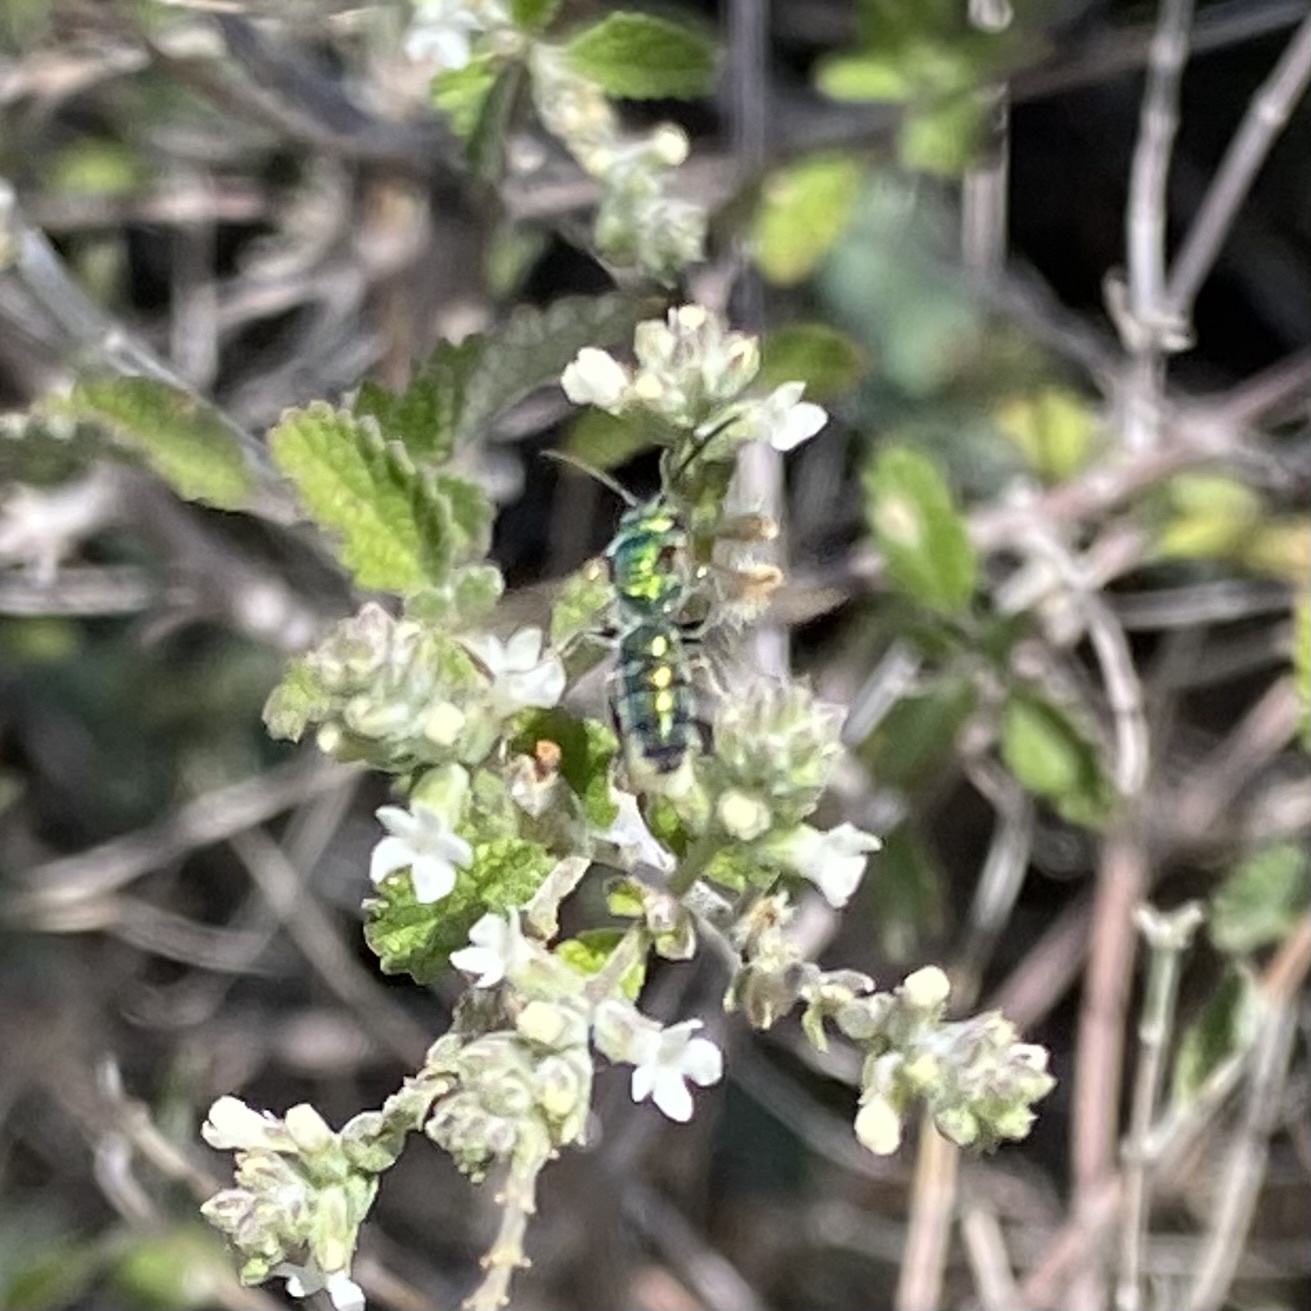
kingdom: Animalia
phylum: Arthropoda
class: Insecta
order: Hymenoptera
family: Halictidae
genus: Augochlorella
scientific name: Augochlorella
